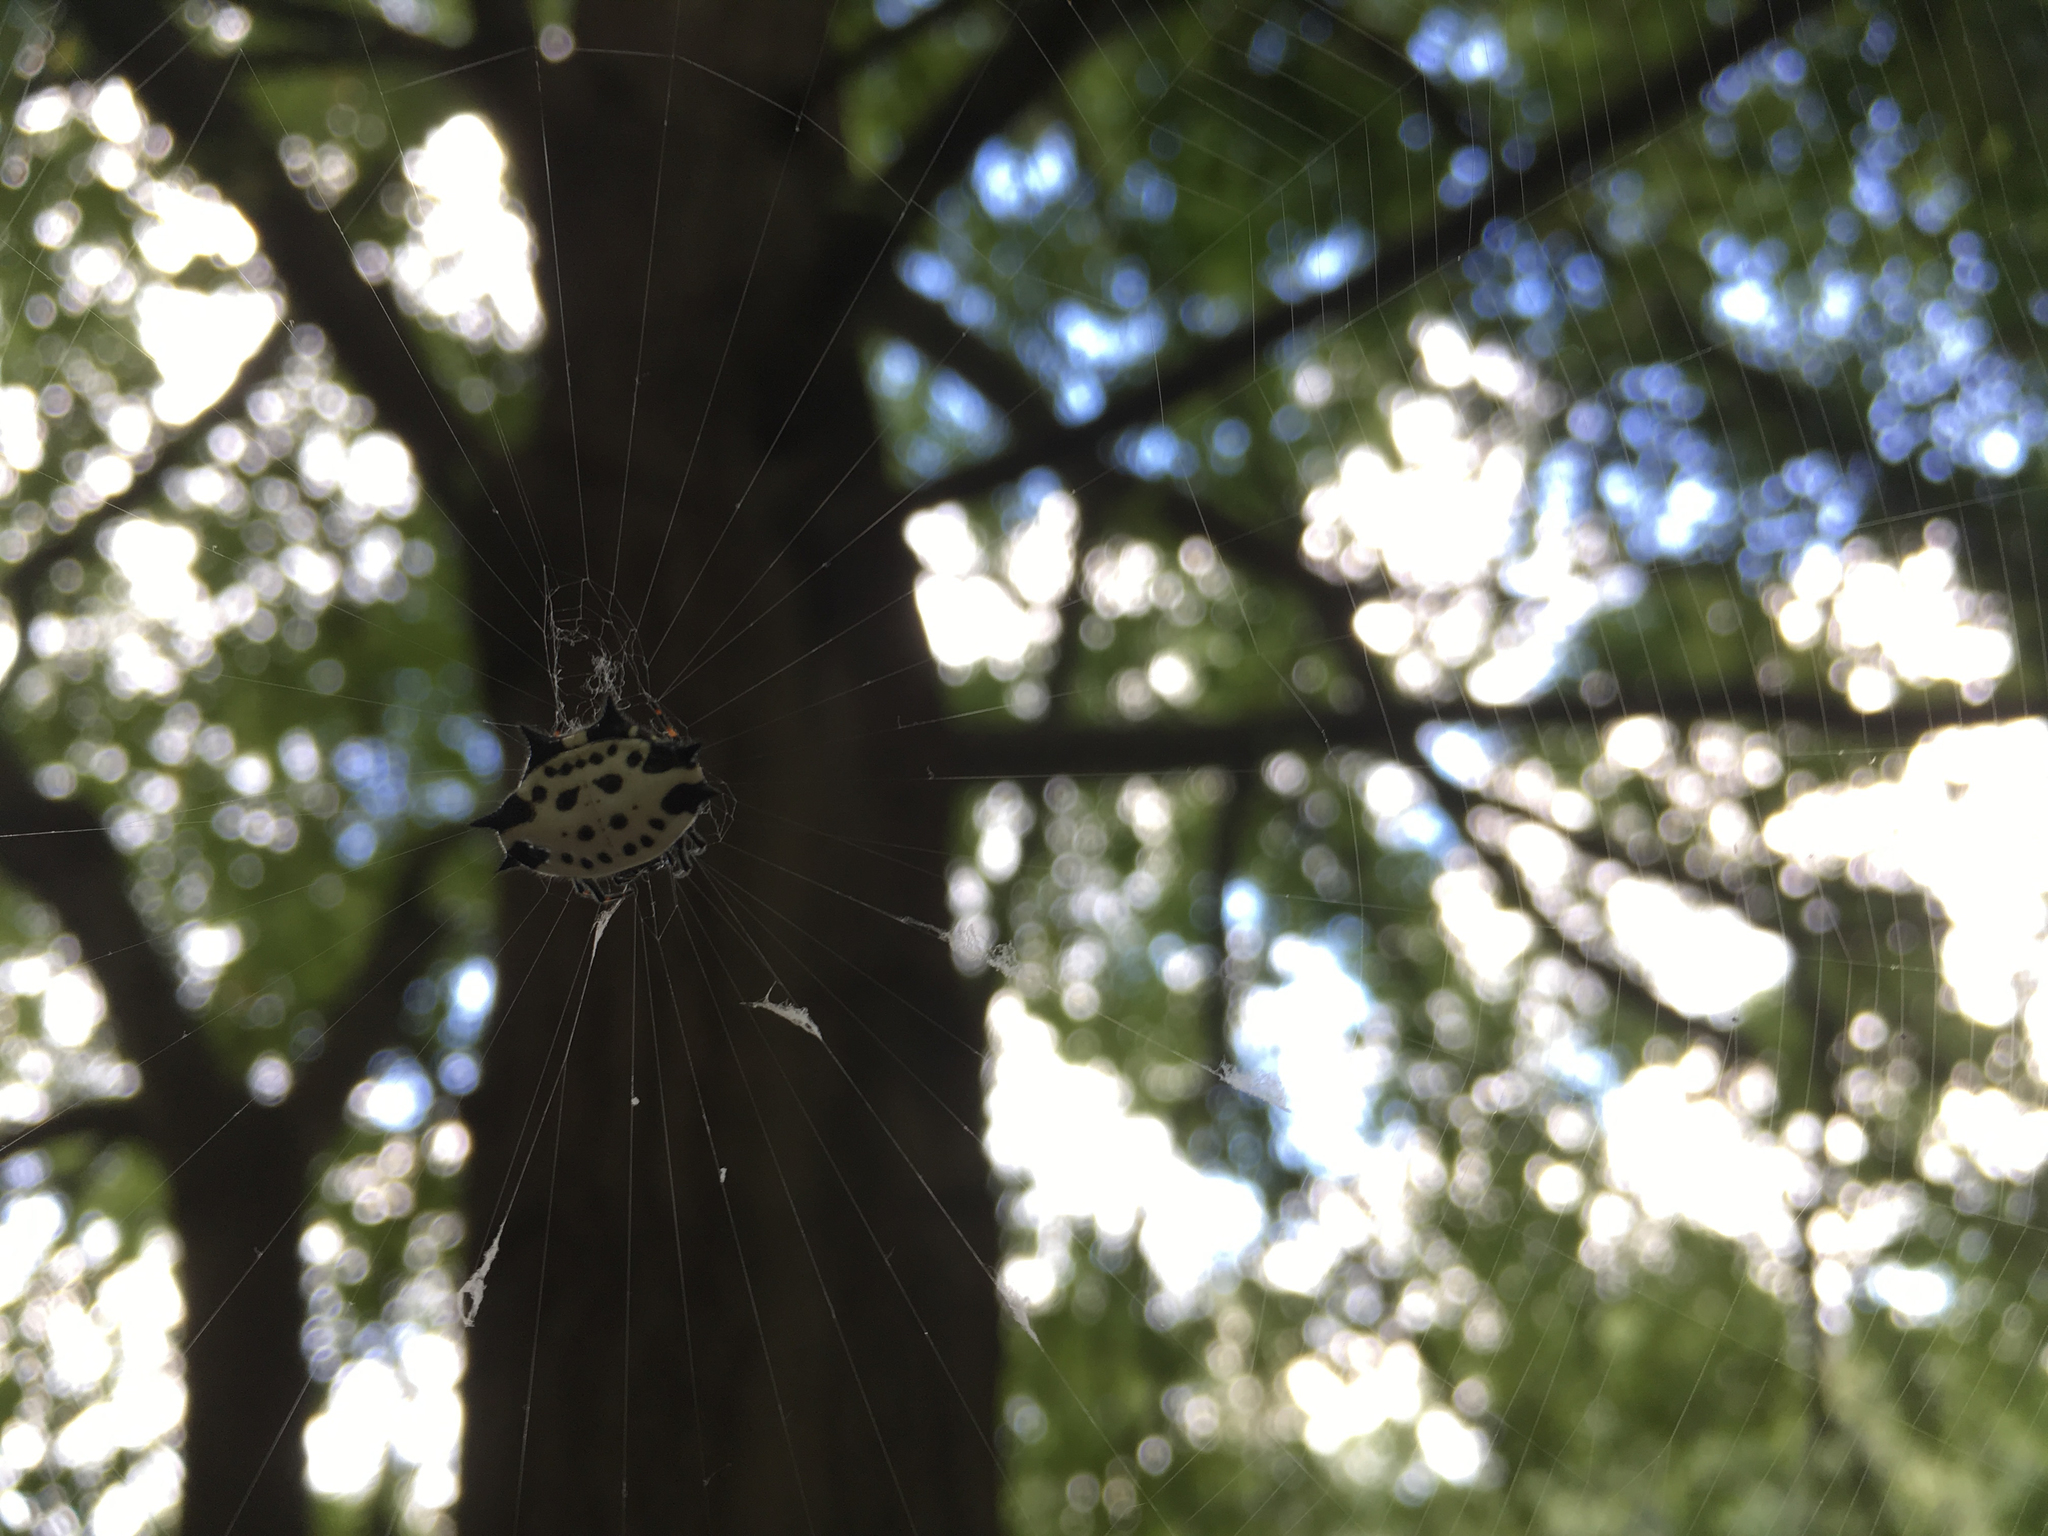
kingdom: Animalia
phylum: Arthropoda
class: Arachnida
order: Araneae
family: Araneidae
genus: Gasteracantha
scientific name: Gasteracantha cancriformis
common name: Orb weavers
